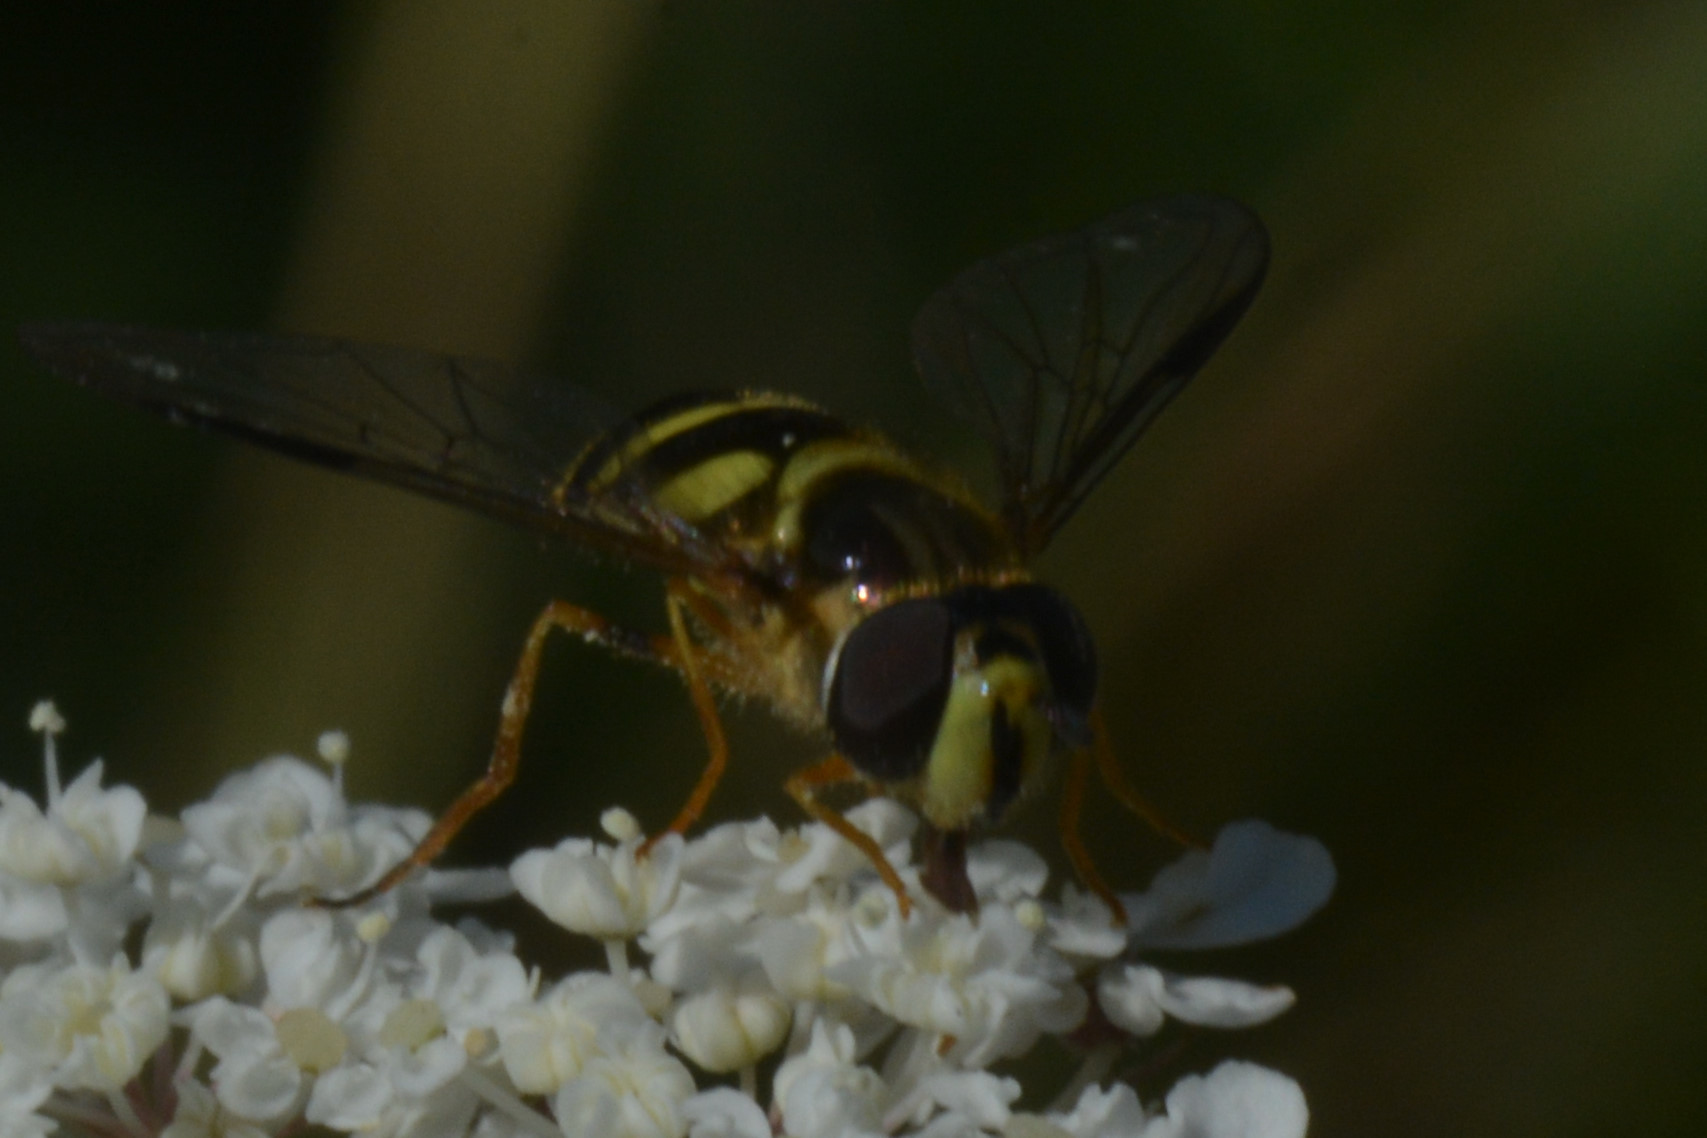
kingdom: Animalia
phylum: Arthropoda
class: Insecta
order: Diptera
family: Syrphidae
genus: Dasysyrphus
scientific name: Dasysyrphus albostriatus
